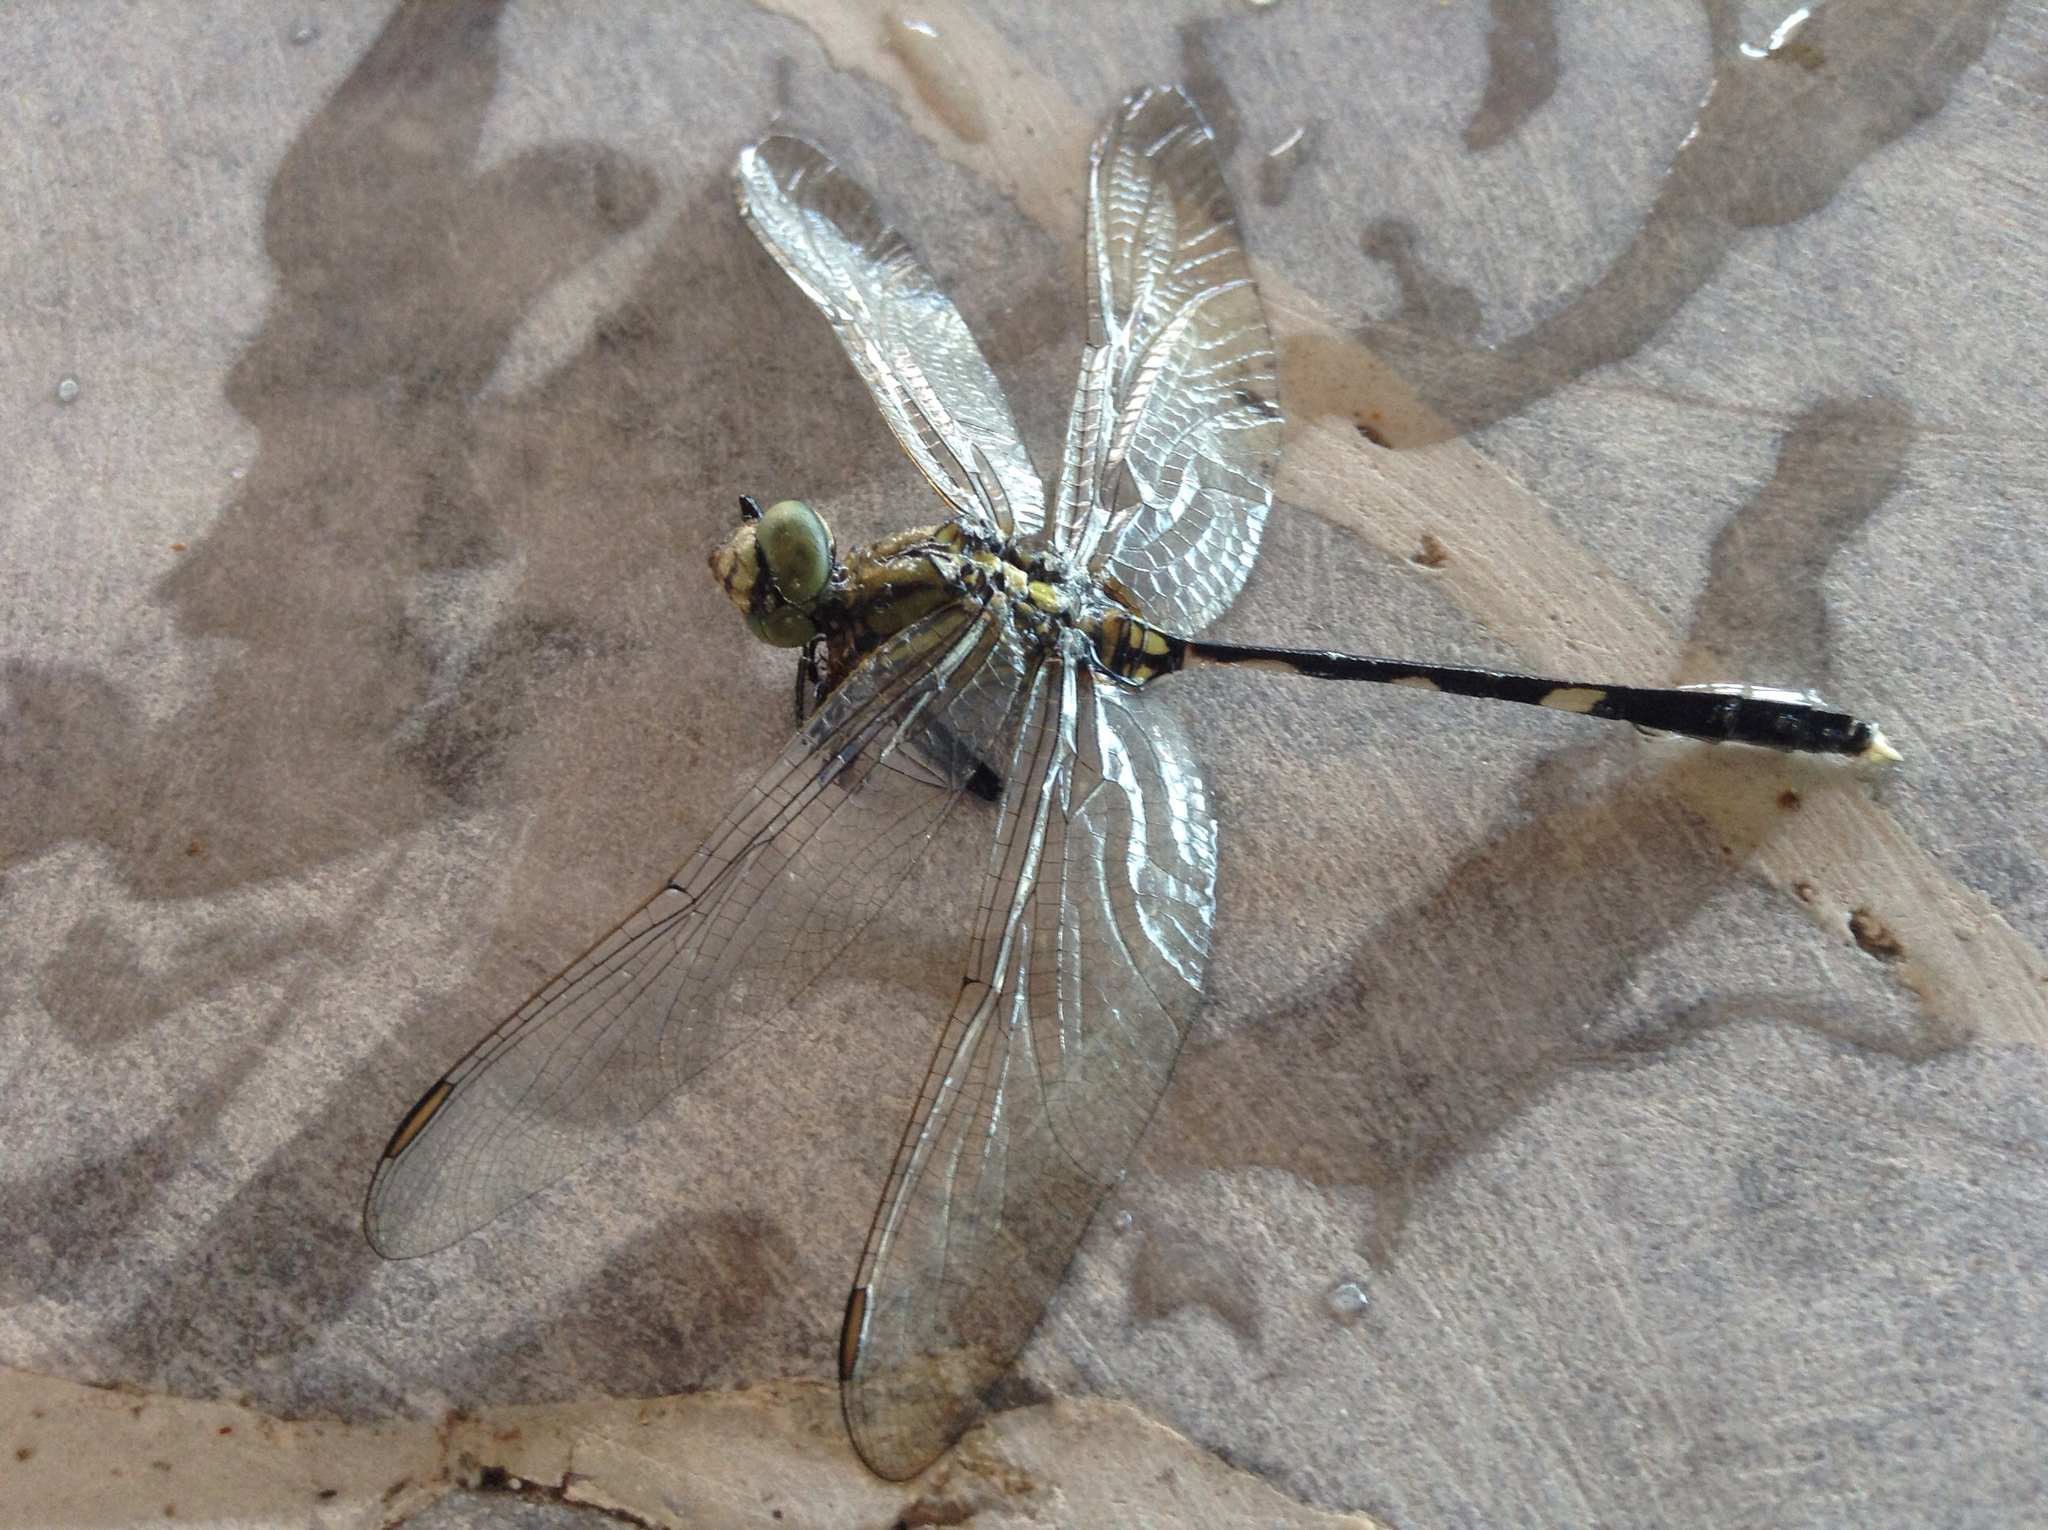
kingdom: Animalia
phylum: Arthropoda
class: Insecta
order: Odonata
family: Libellulidae
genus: Orthetrum
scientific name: Orthetrum sabina
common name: Slender skimmer
